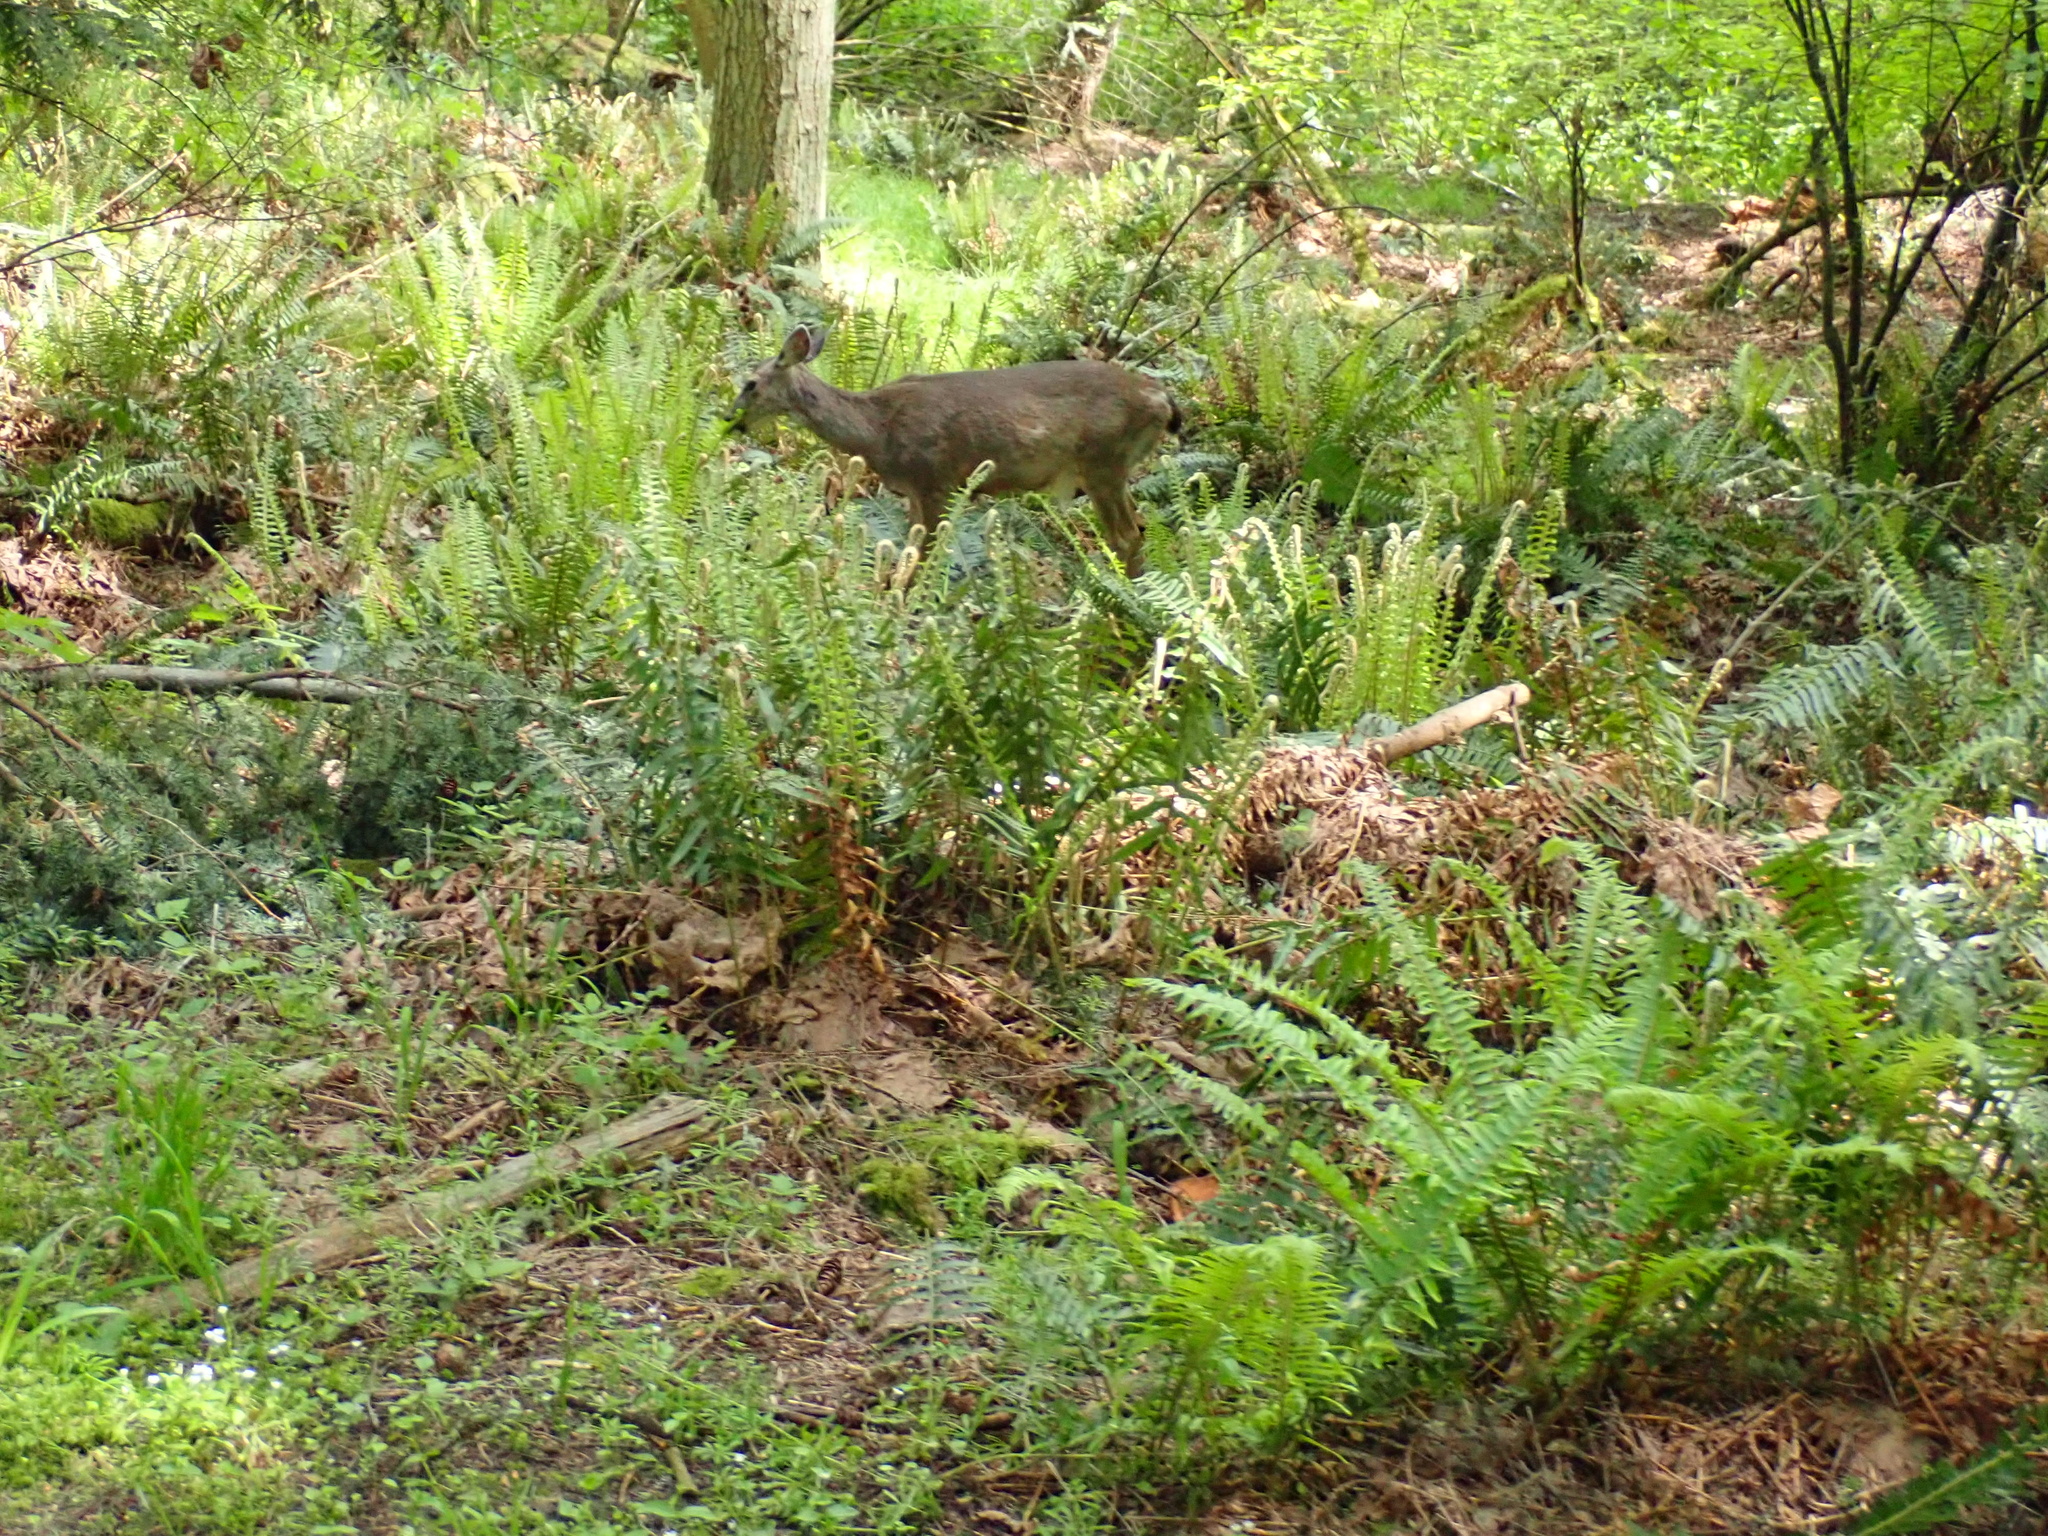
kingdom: Animalia
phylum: Chordata
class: Mammalia
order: Artiodactyla
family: Cervidae
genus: Odocoileus
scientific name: Odocoileus hemionus
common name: Mule deer
